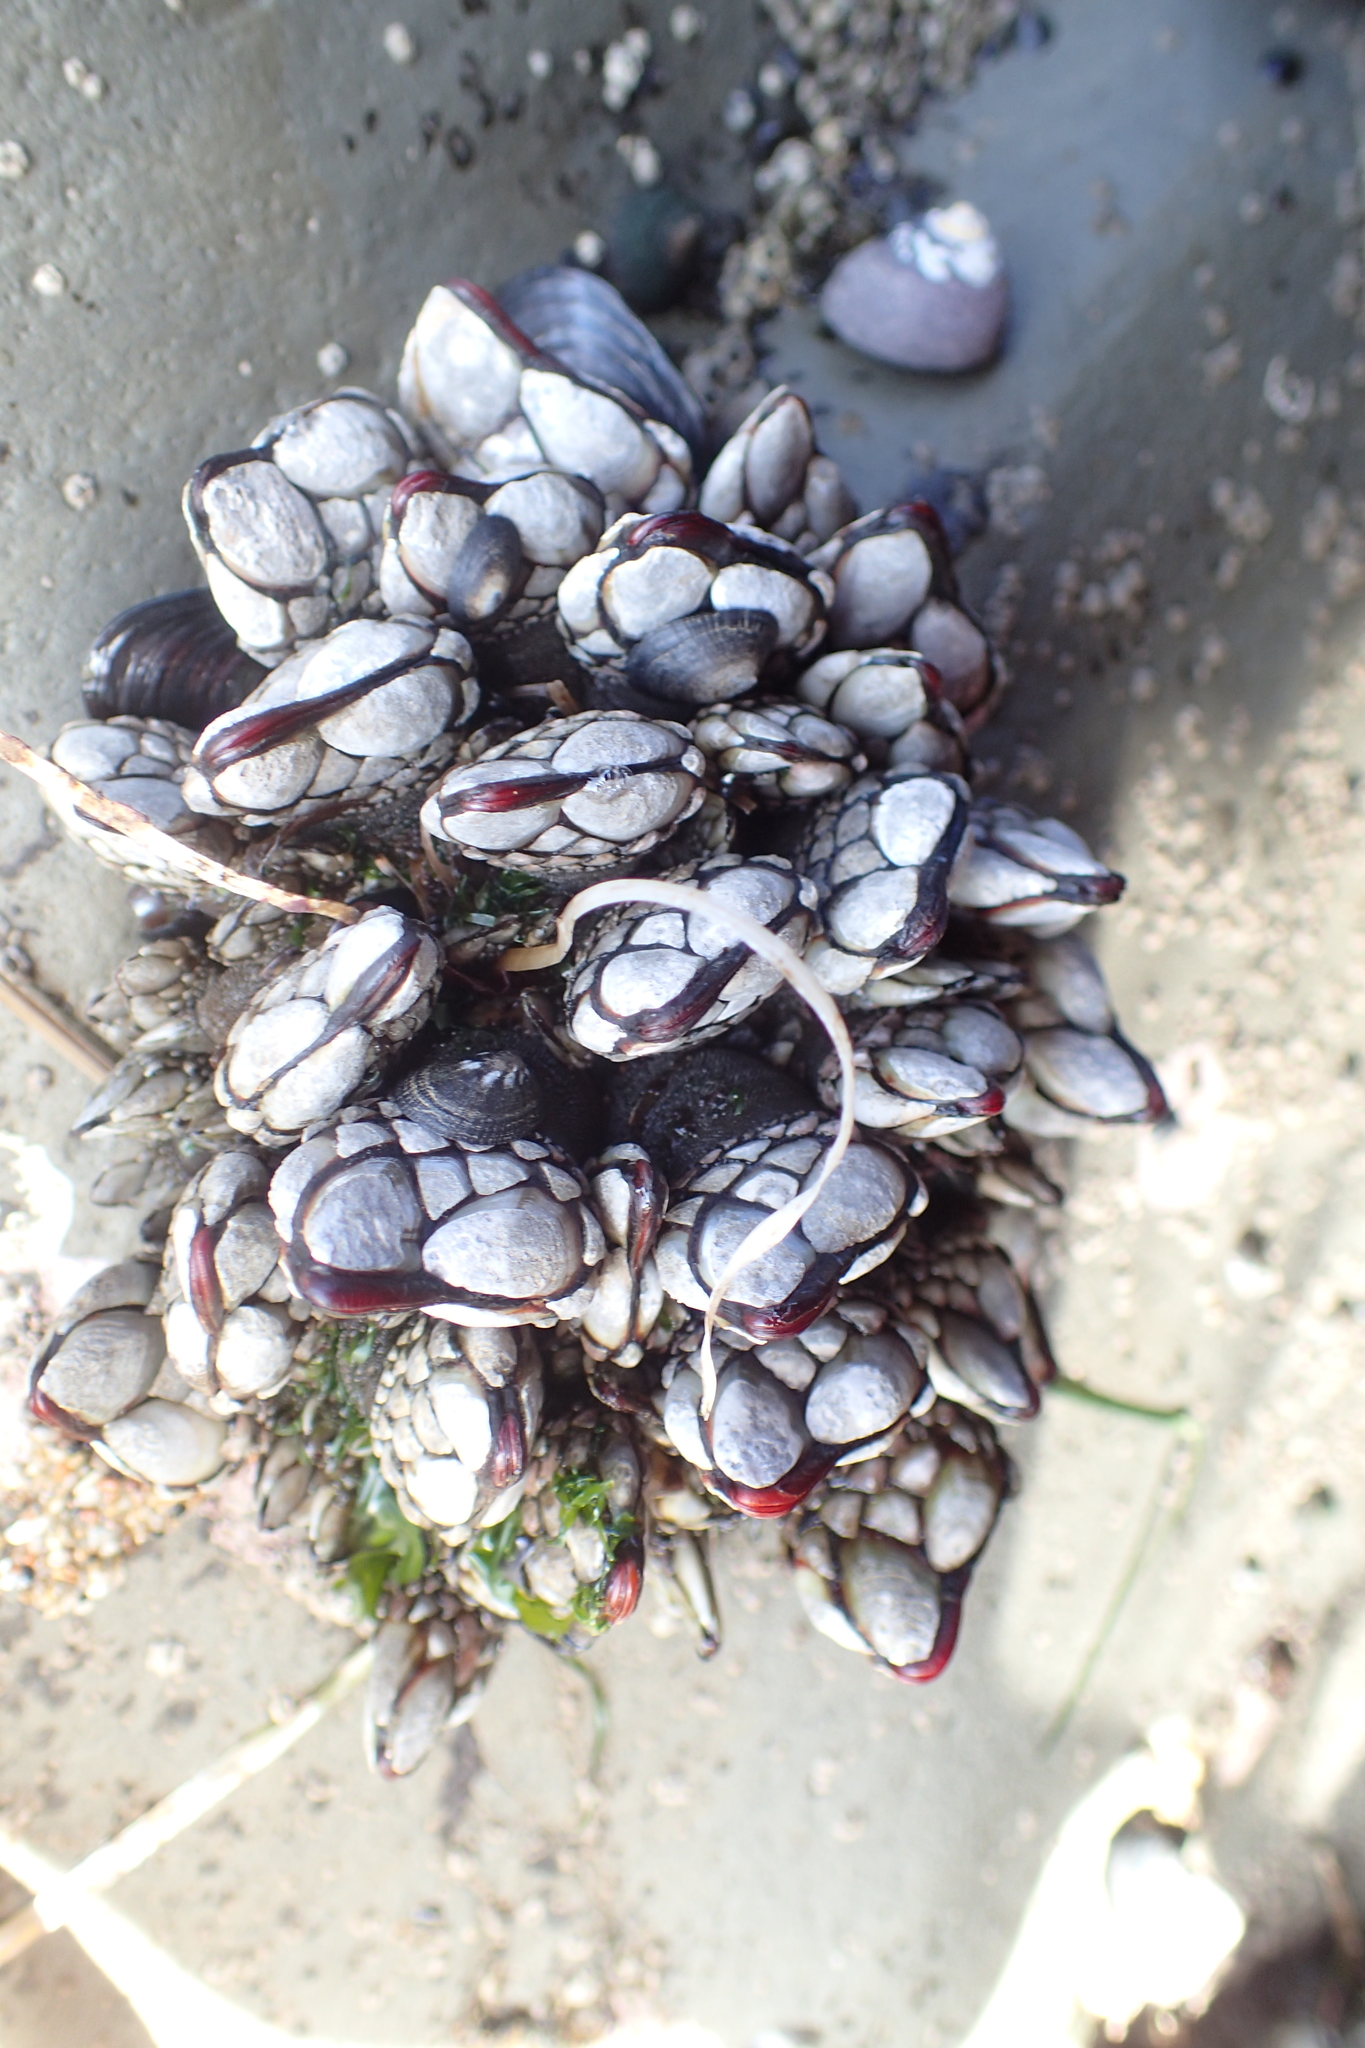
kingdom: Animalia
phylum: Arthropoda
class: Maxillopoda
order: Pedunculata
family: Pollicipedidae
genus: Pollicipes
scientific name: Pollicipes polymerus
